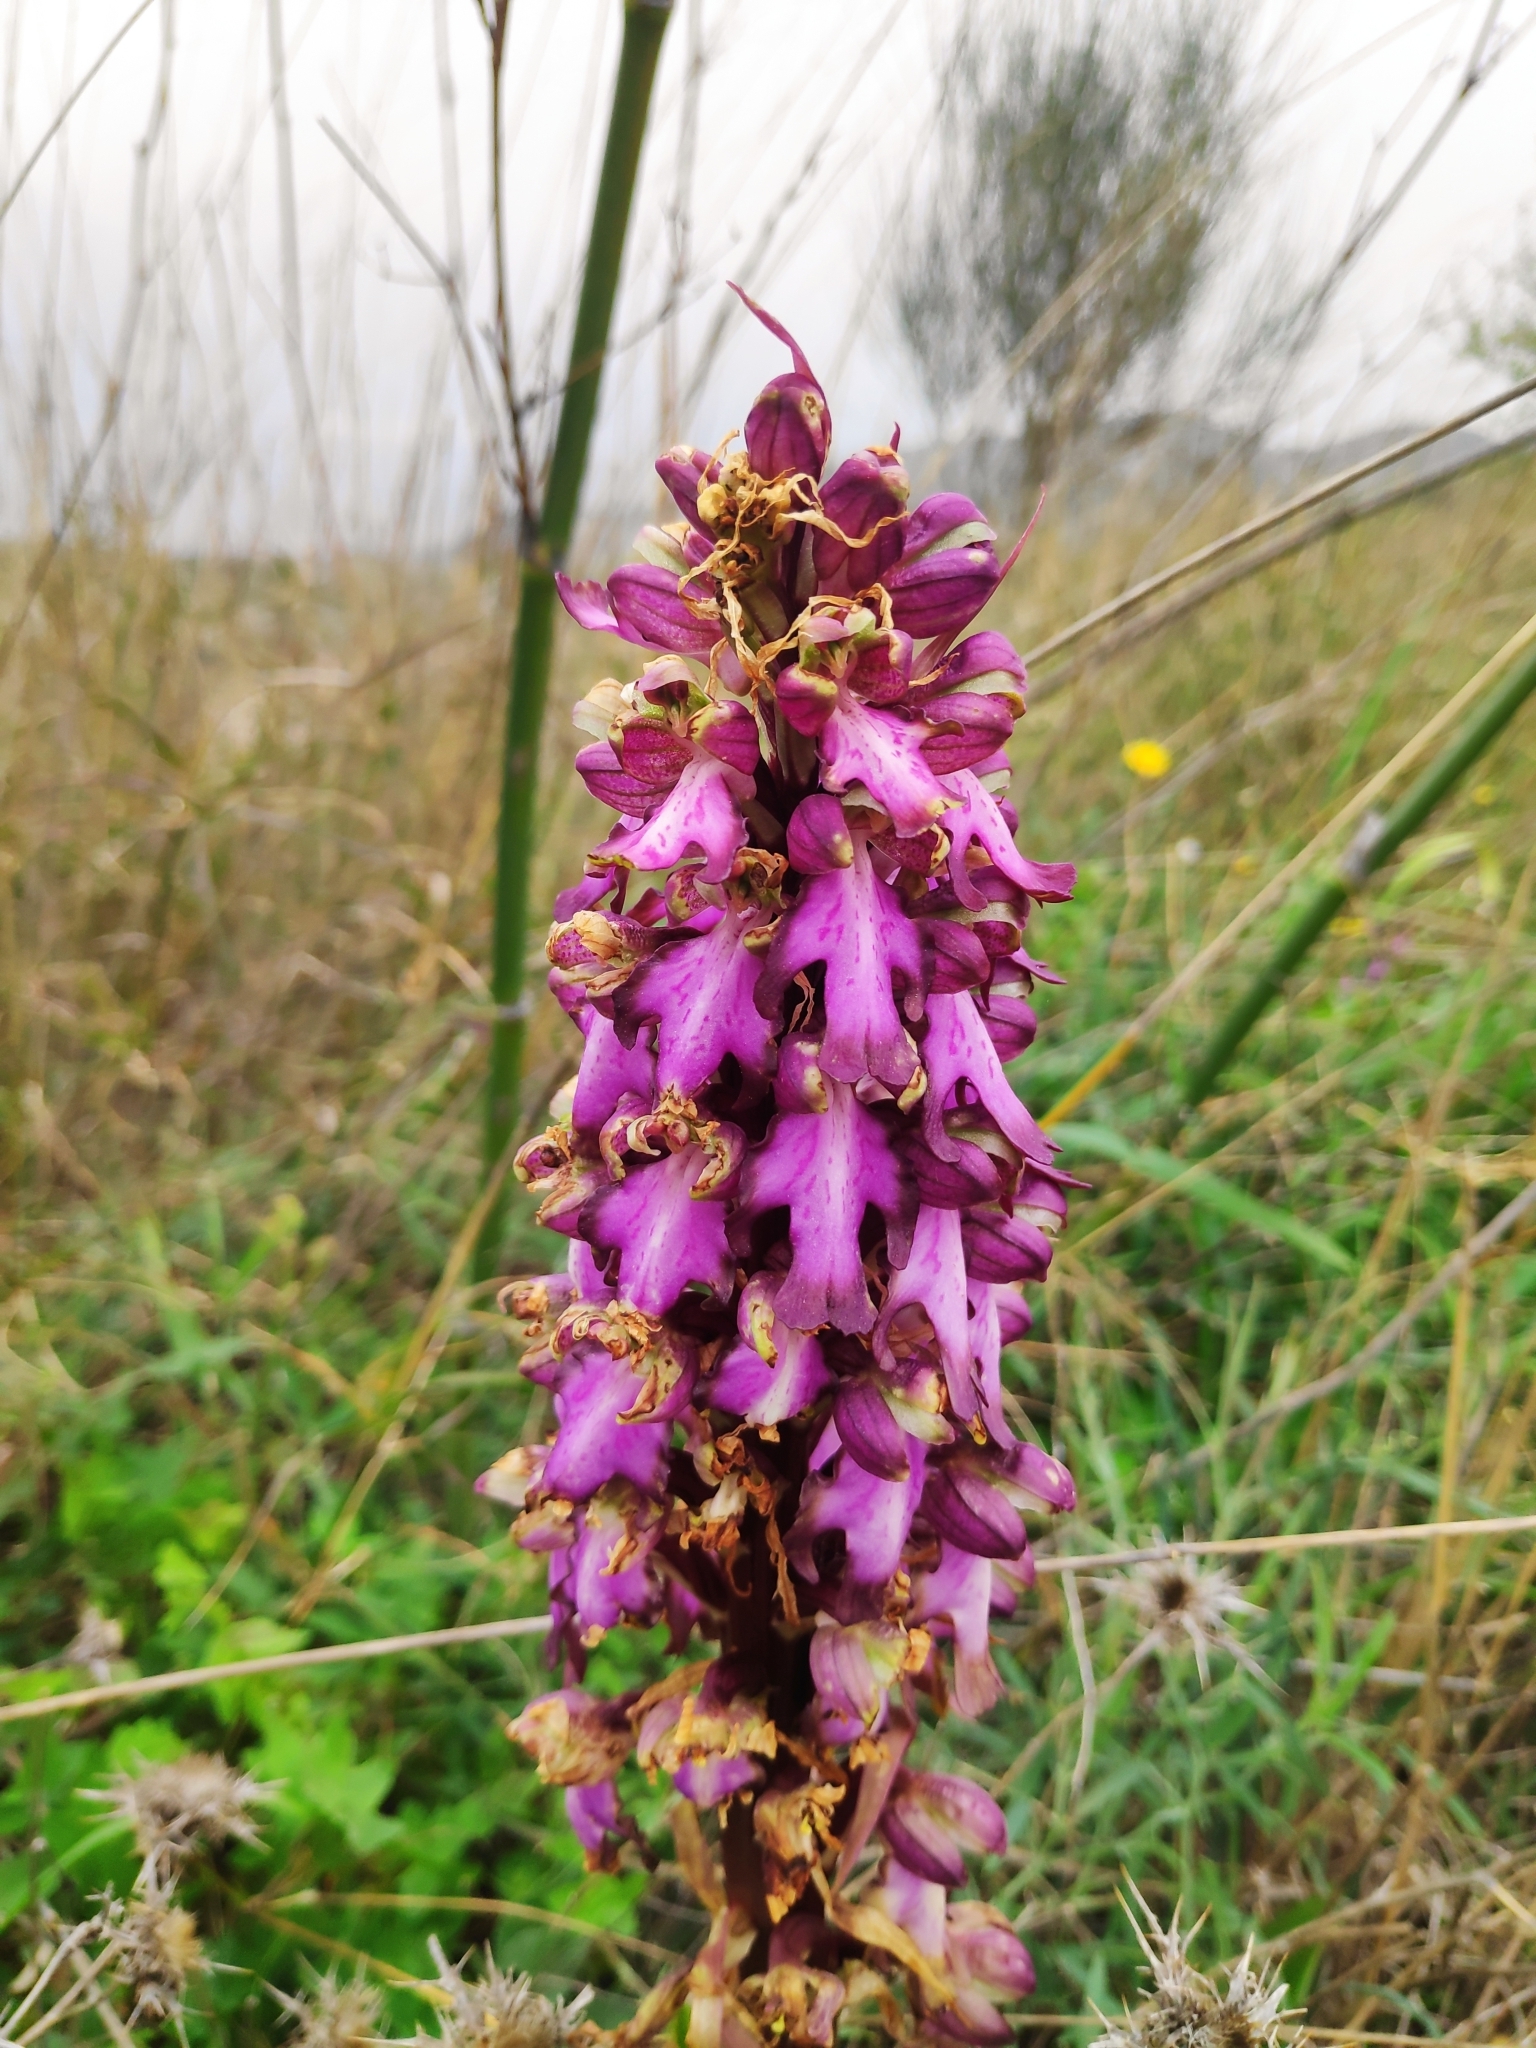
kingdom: Plantae
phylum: Tracheophyta
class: Liliopsida
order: Asparagales
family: Orchidaceae
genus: Himantoglossum
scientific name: Himantoglossum robertianum
